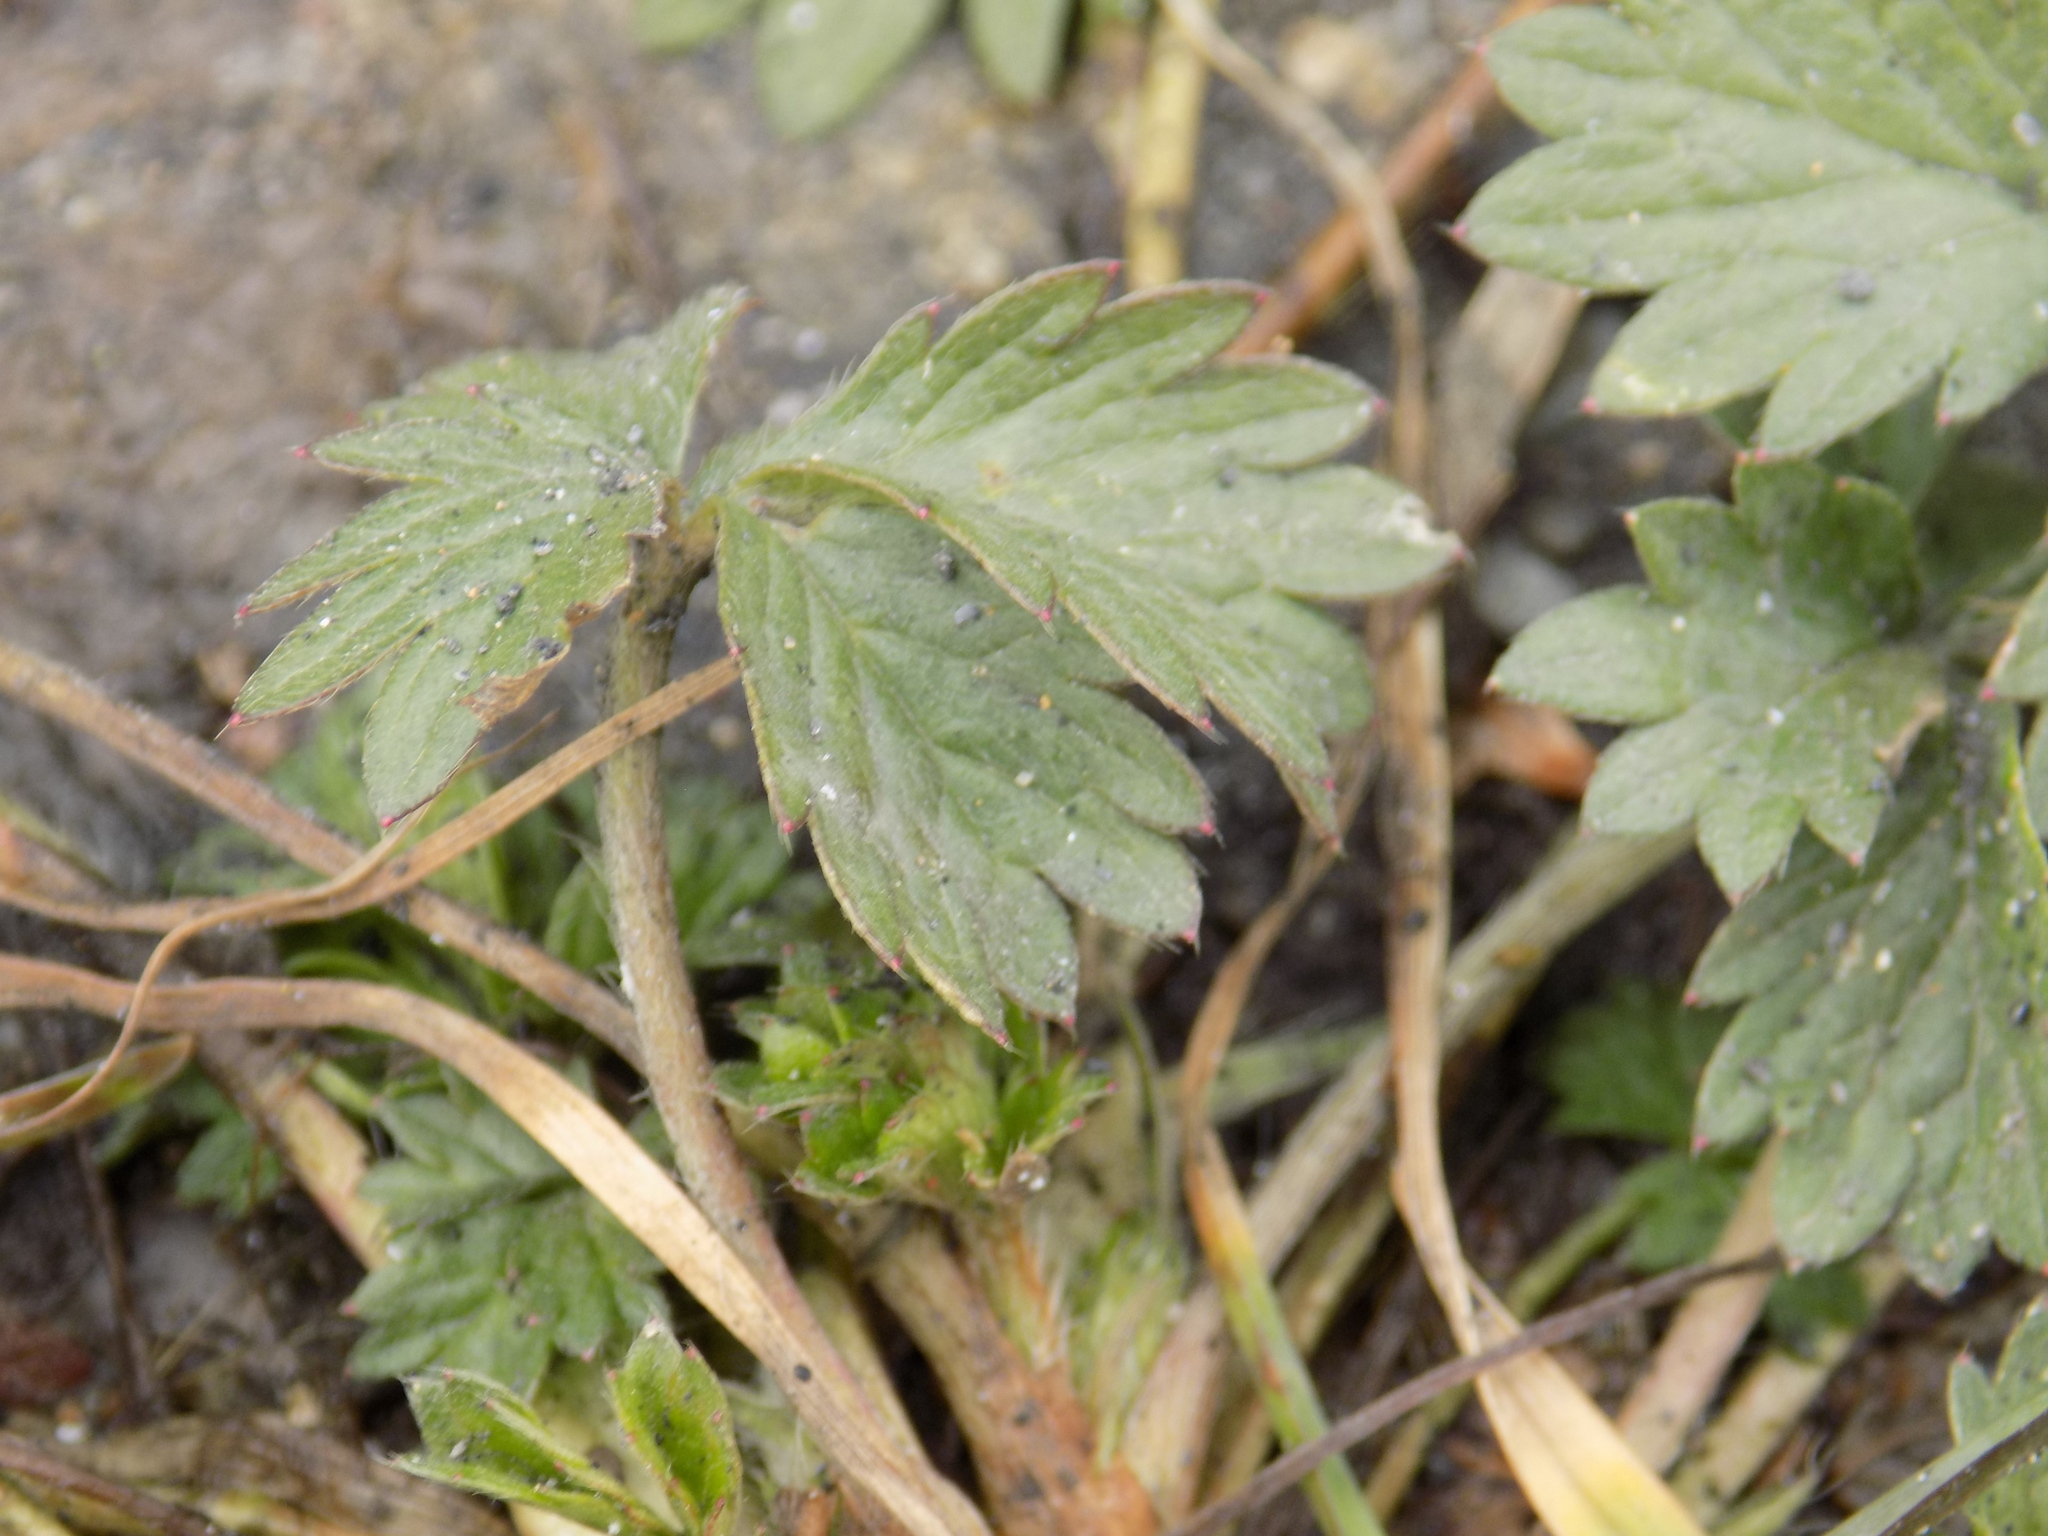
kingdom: Plantae
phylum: Tracheophyta
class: Magnoliopsida
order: Rosales
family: Rosaceae
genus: Potentilla
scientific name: Potentilla intermedia
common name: Downy cinquefoil
